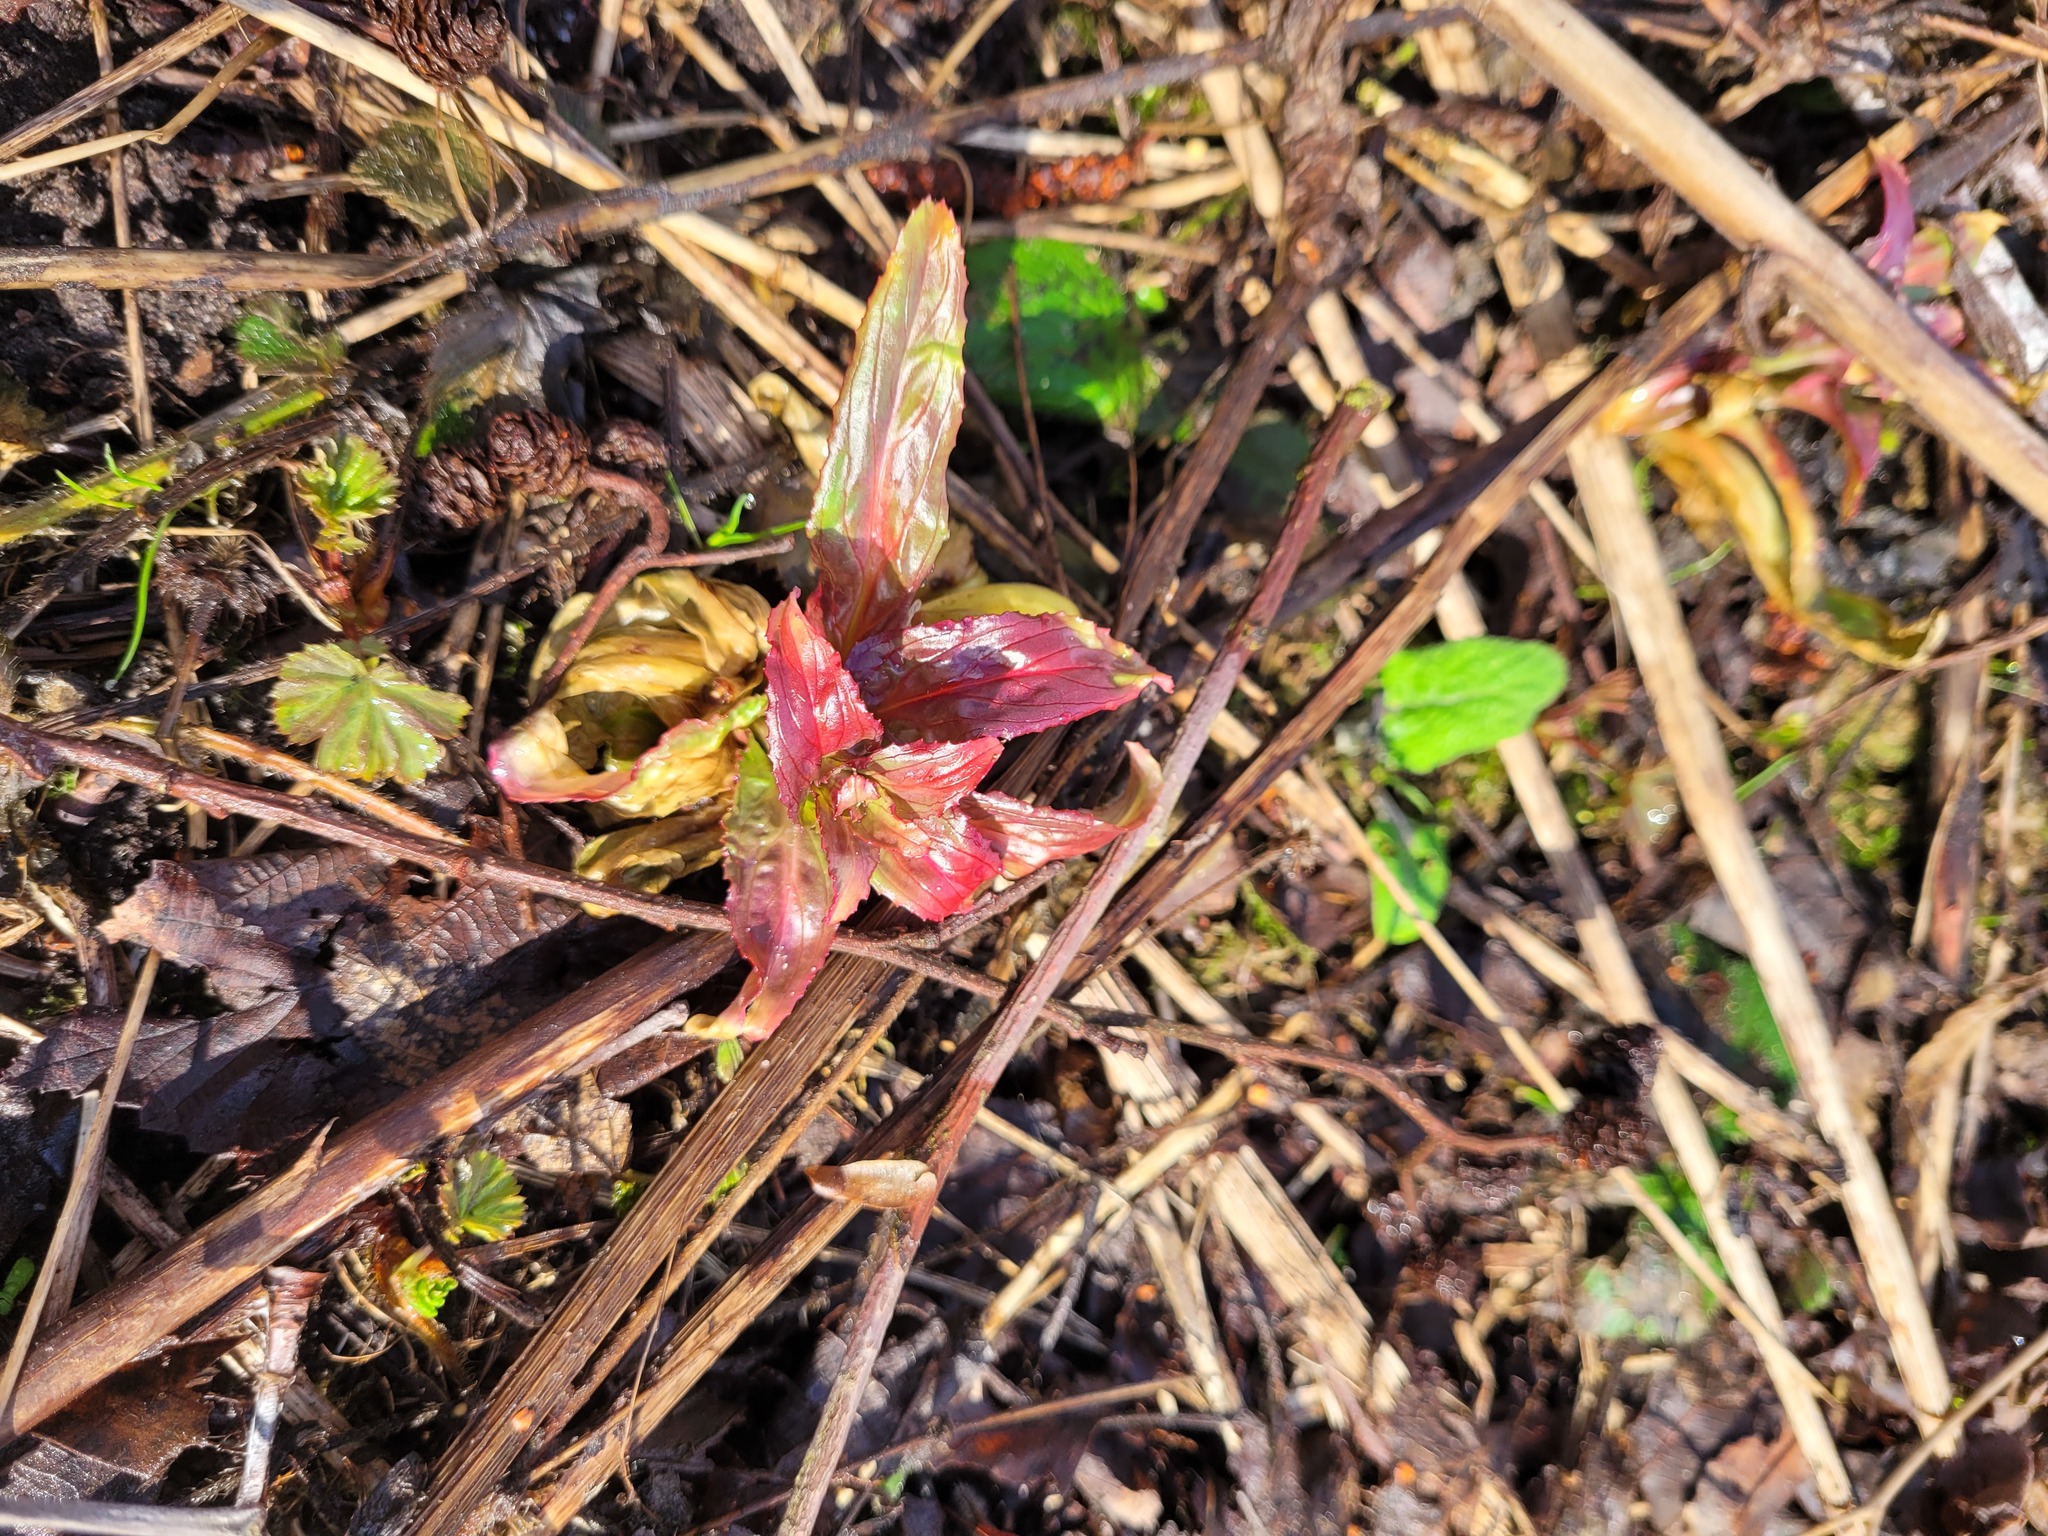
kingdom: Plantae
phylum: Tracheophyta
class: Magnoliopsida
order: Myrtales
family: Onagraceae
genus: Epilobium
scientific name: Epilobium hirsutum
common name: Great willowherb
